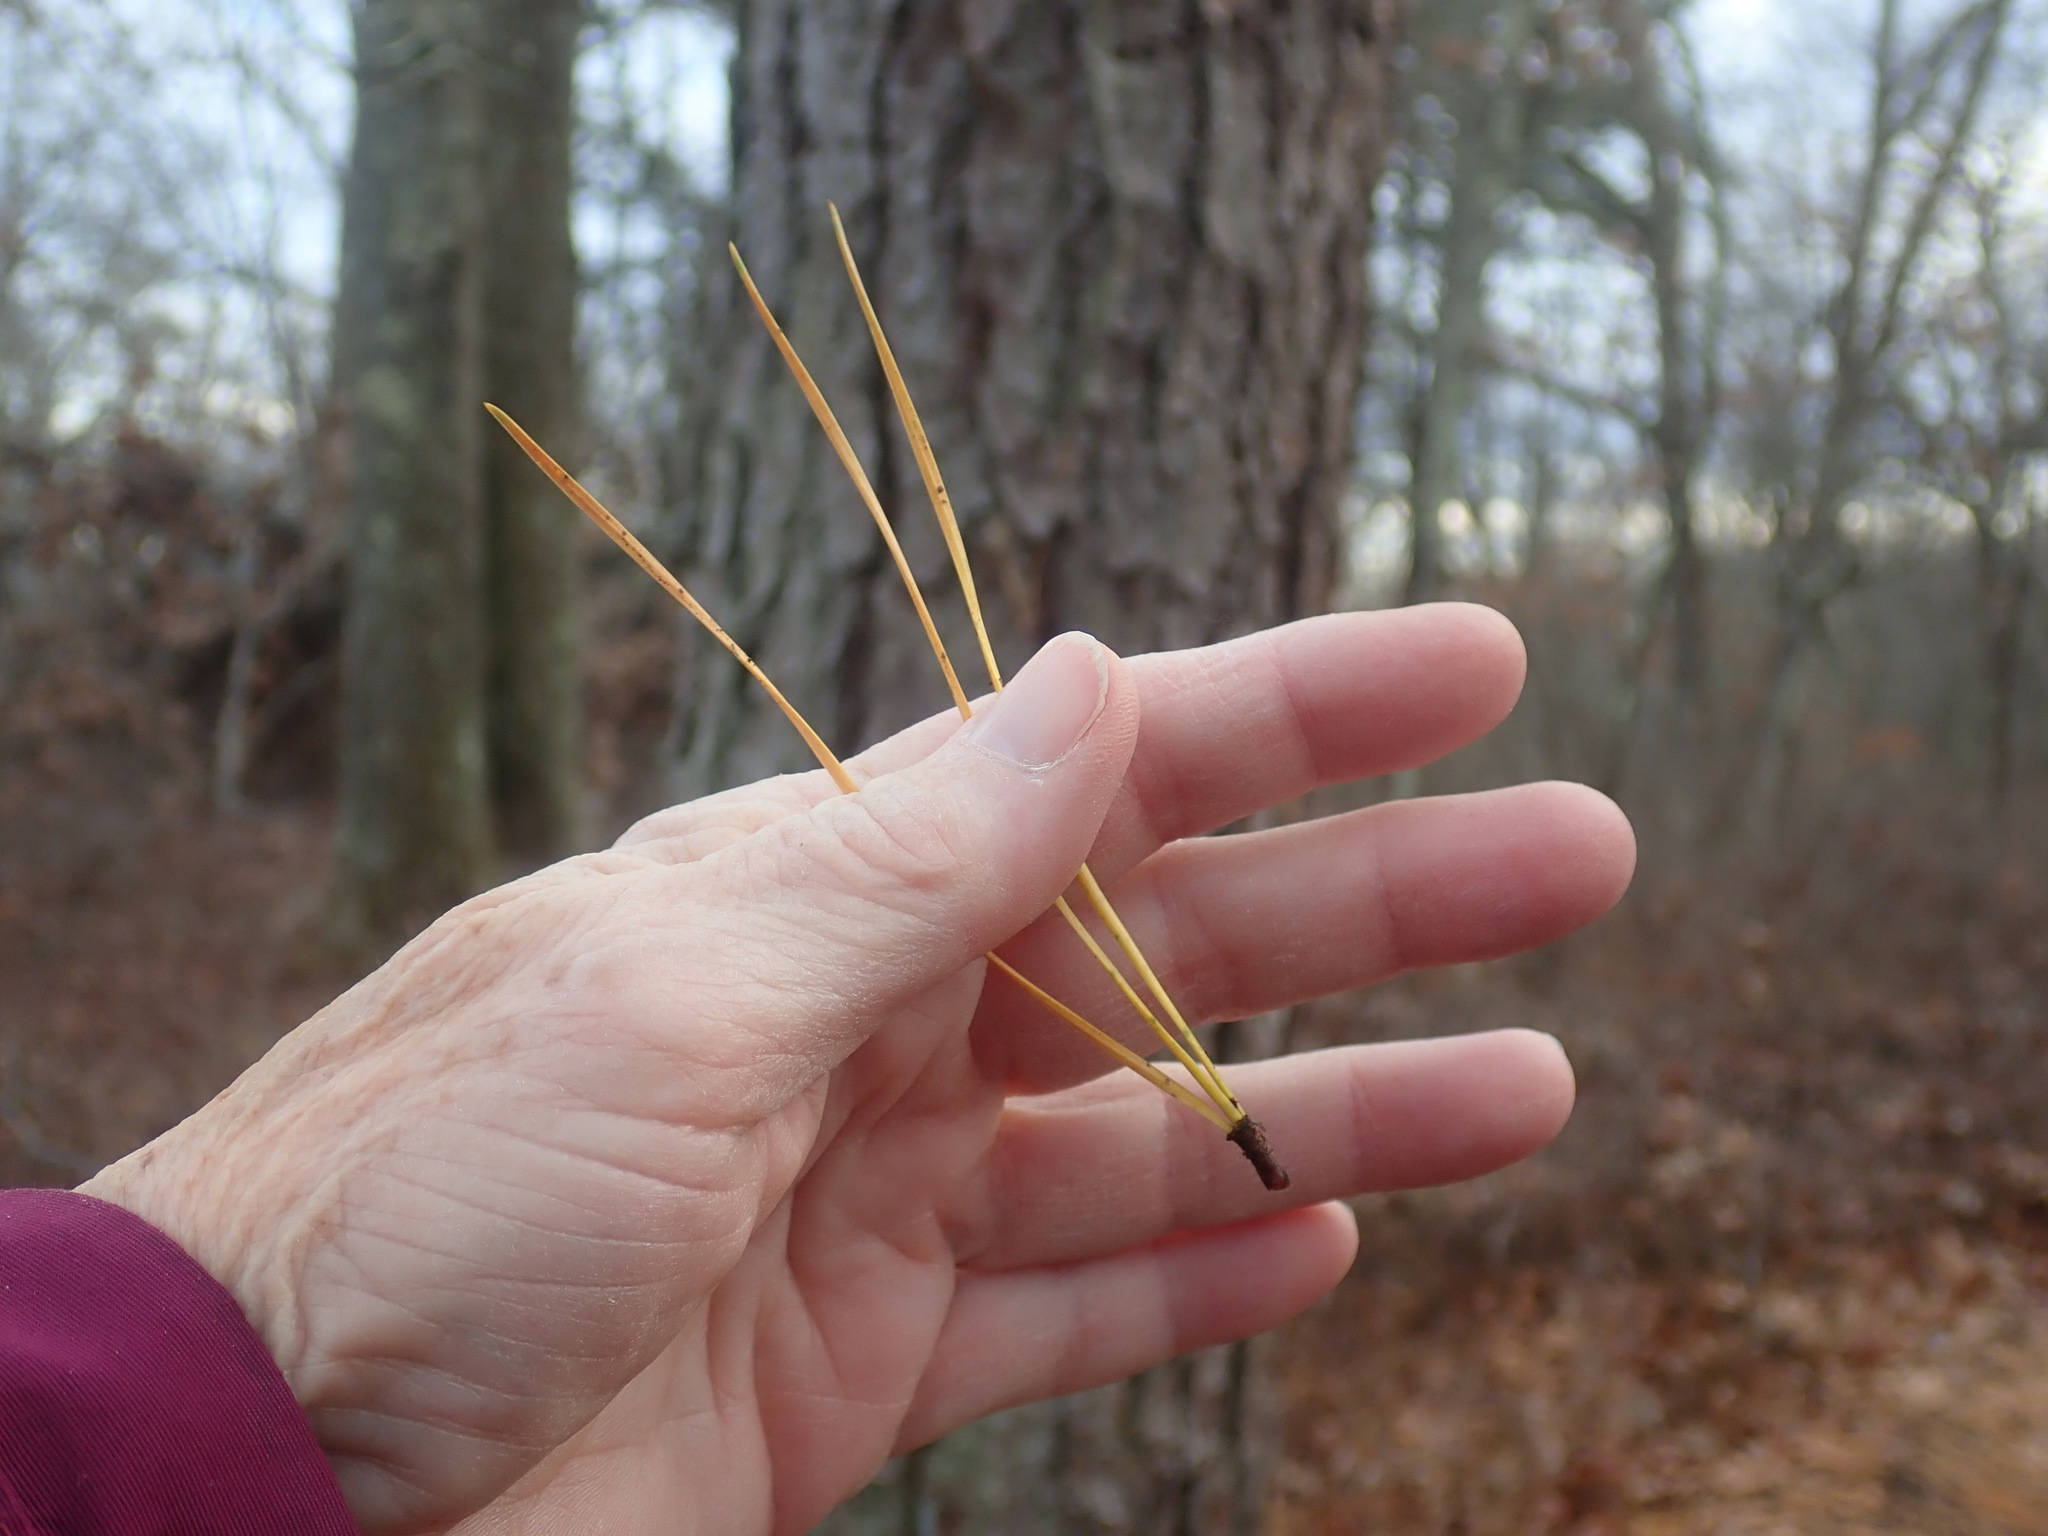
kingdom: Plantae
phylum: Tracheophyta
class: Pinopsida
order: Pinales
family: Pinaceae
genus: Pinus
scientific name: Pinus rigida
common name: Pitch pine
